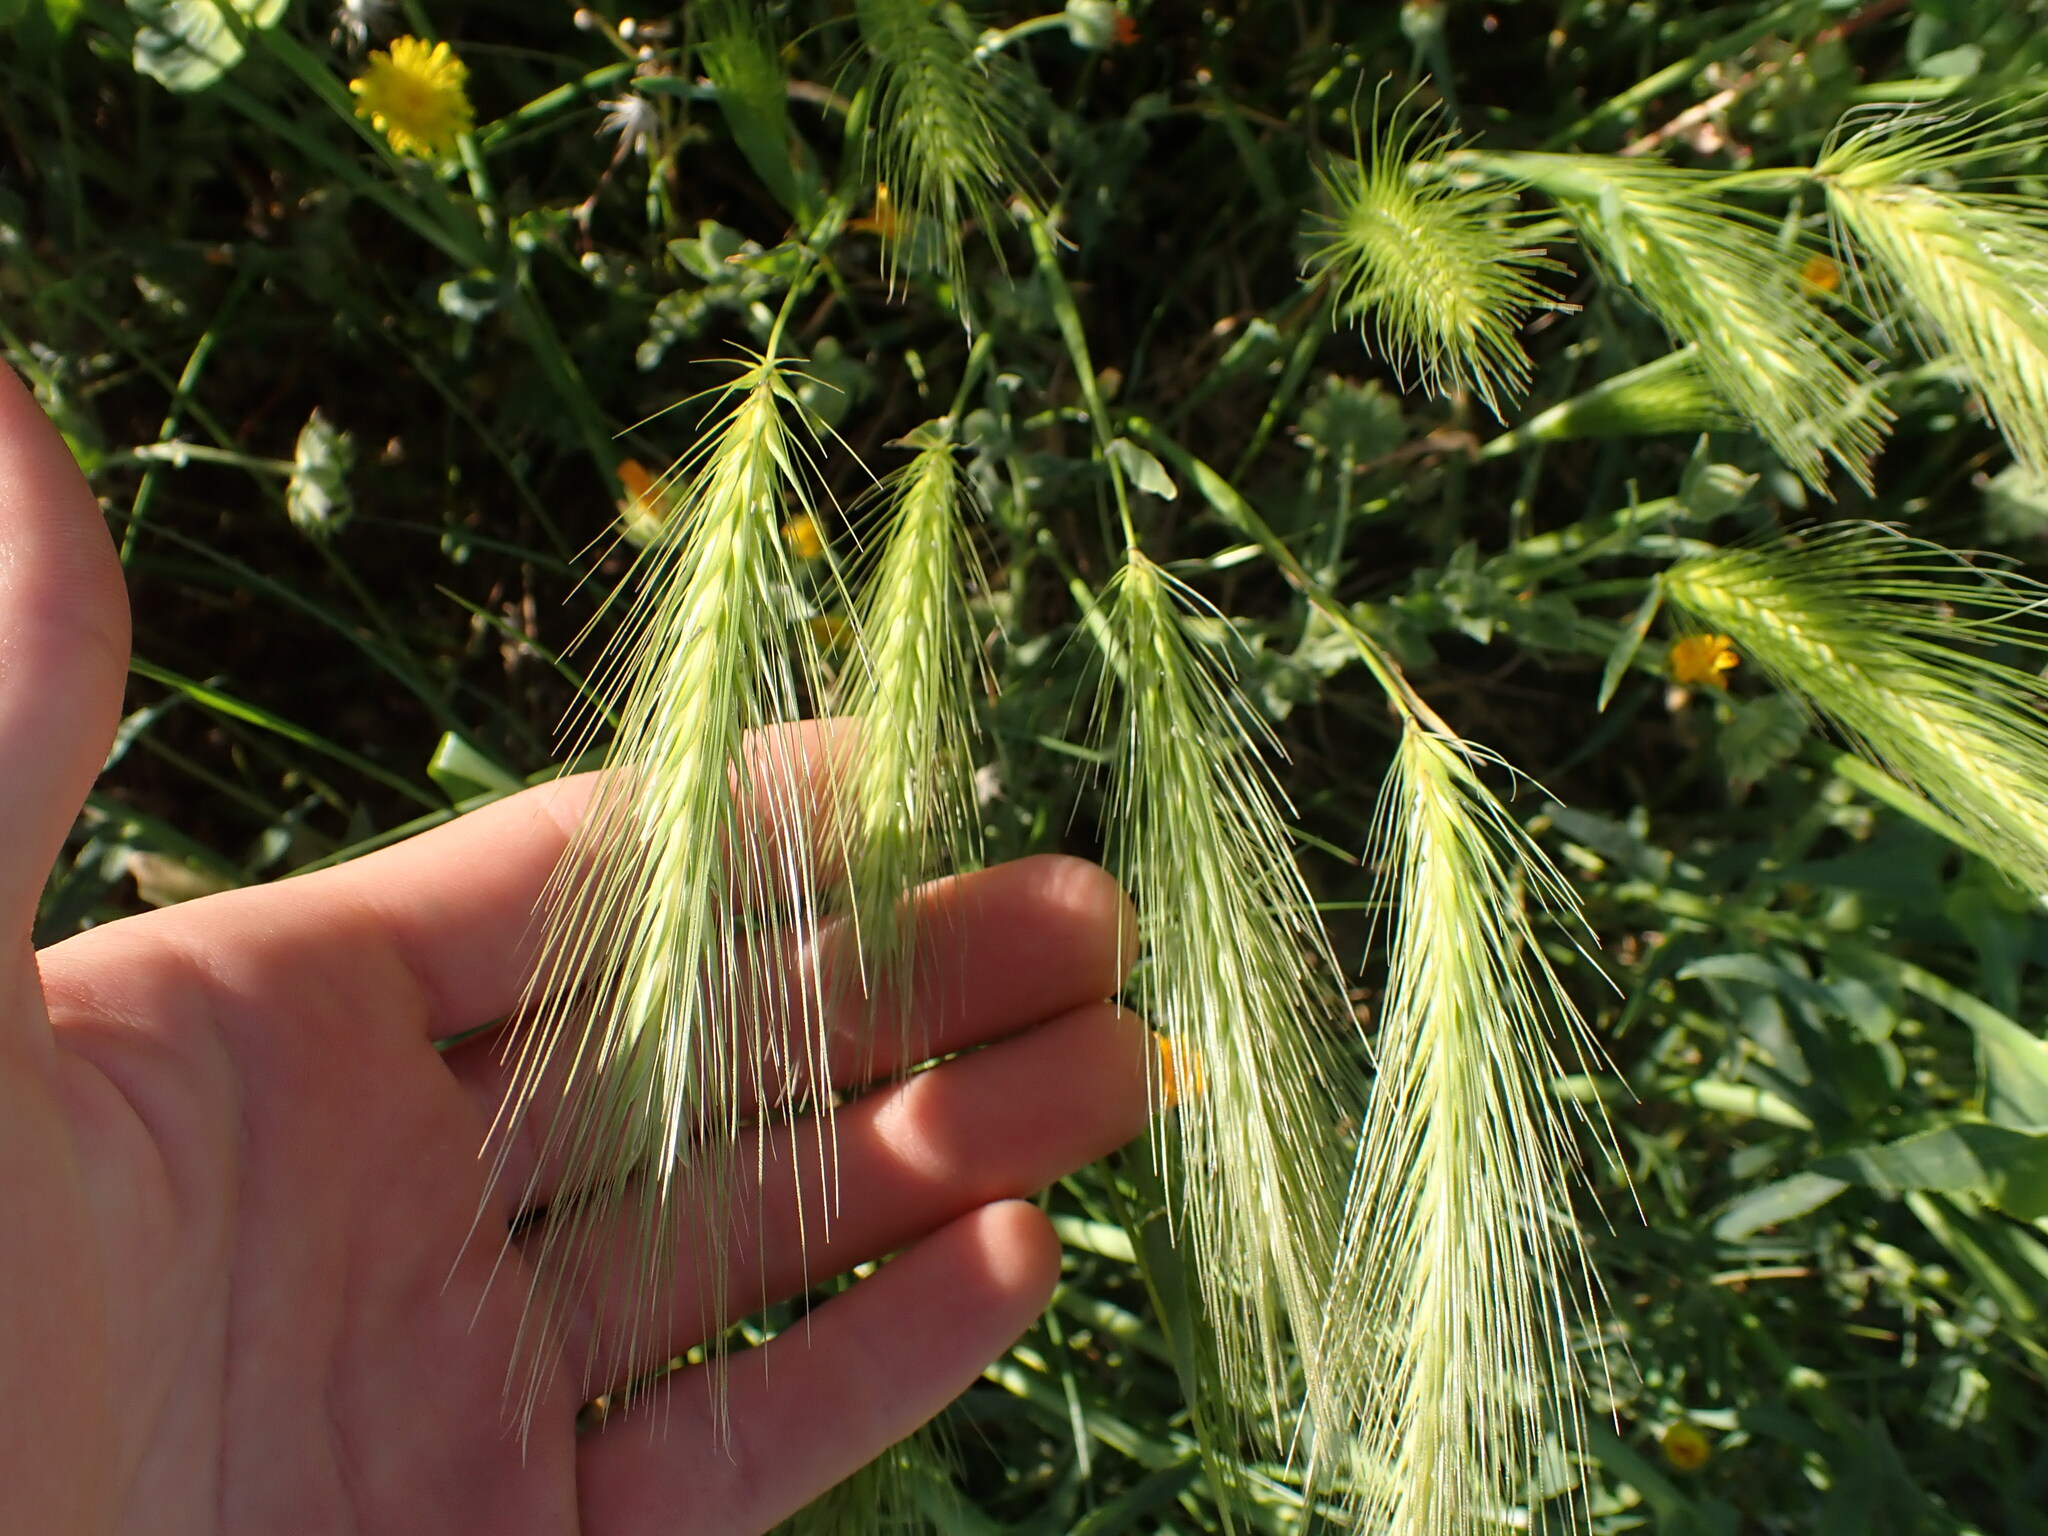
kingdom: Plantae
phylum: Tracheophyta
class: Liliopsida
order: Poales
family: Poaceae
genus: Hordeum
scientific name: Hordeum murinum
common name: Wall barley
